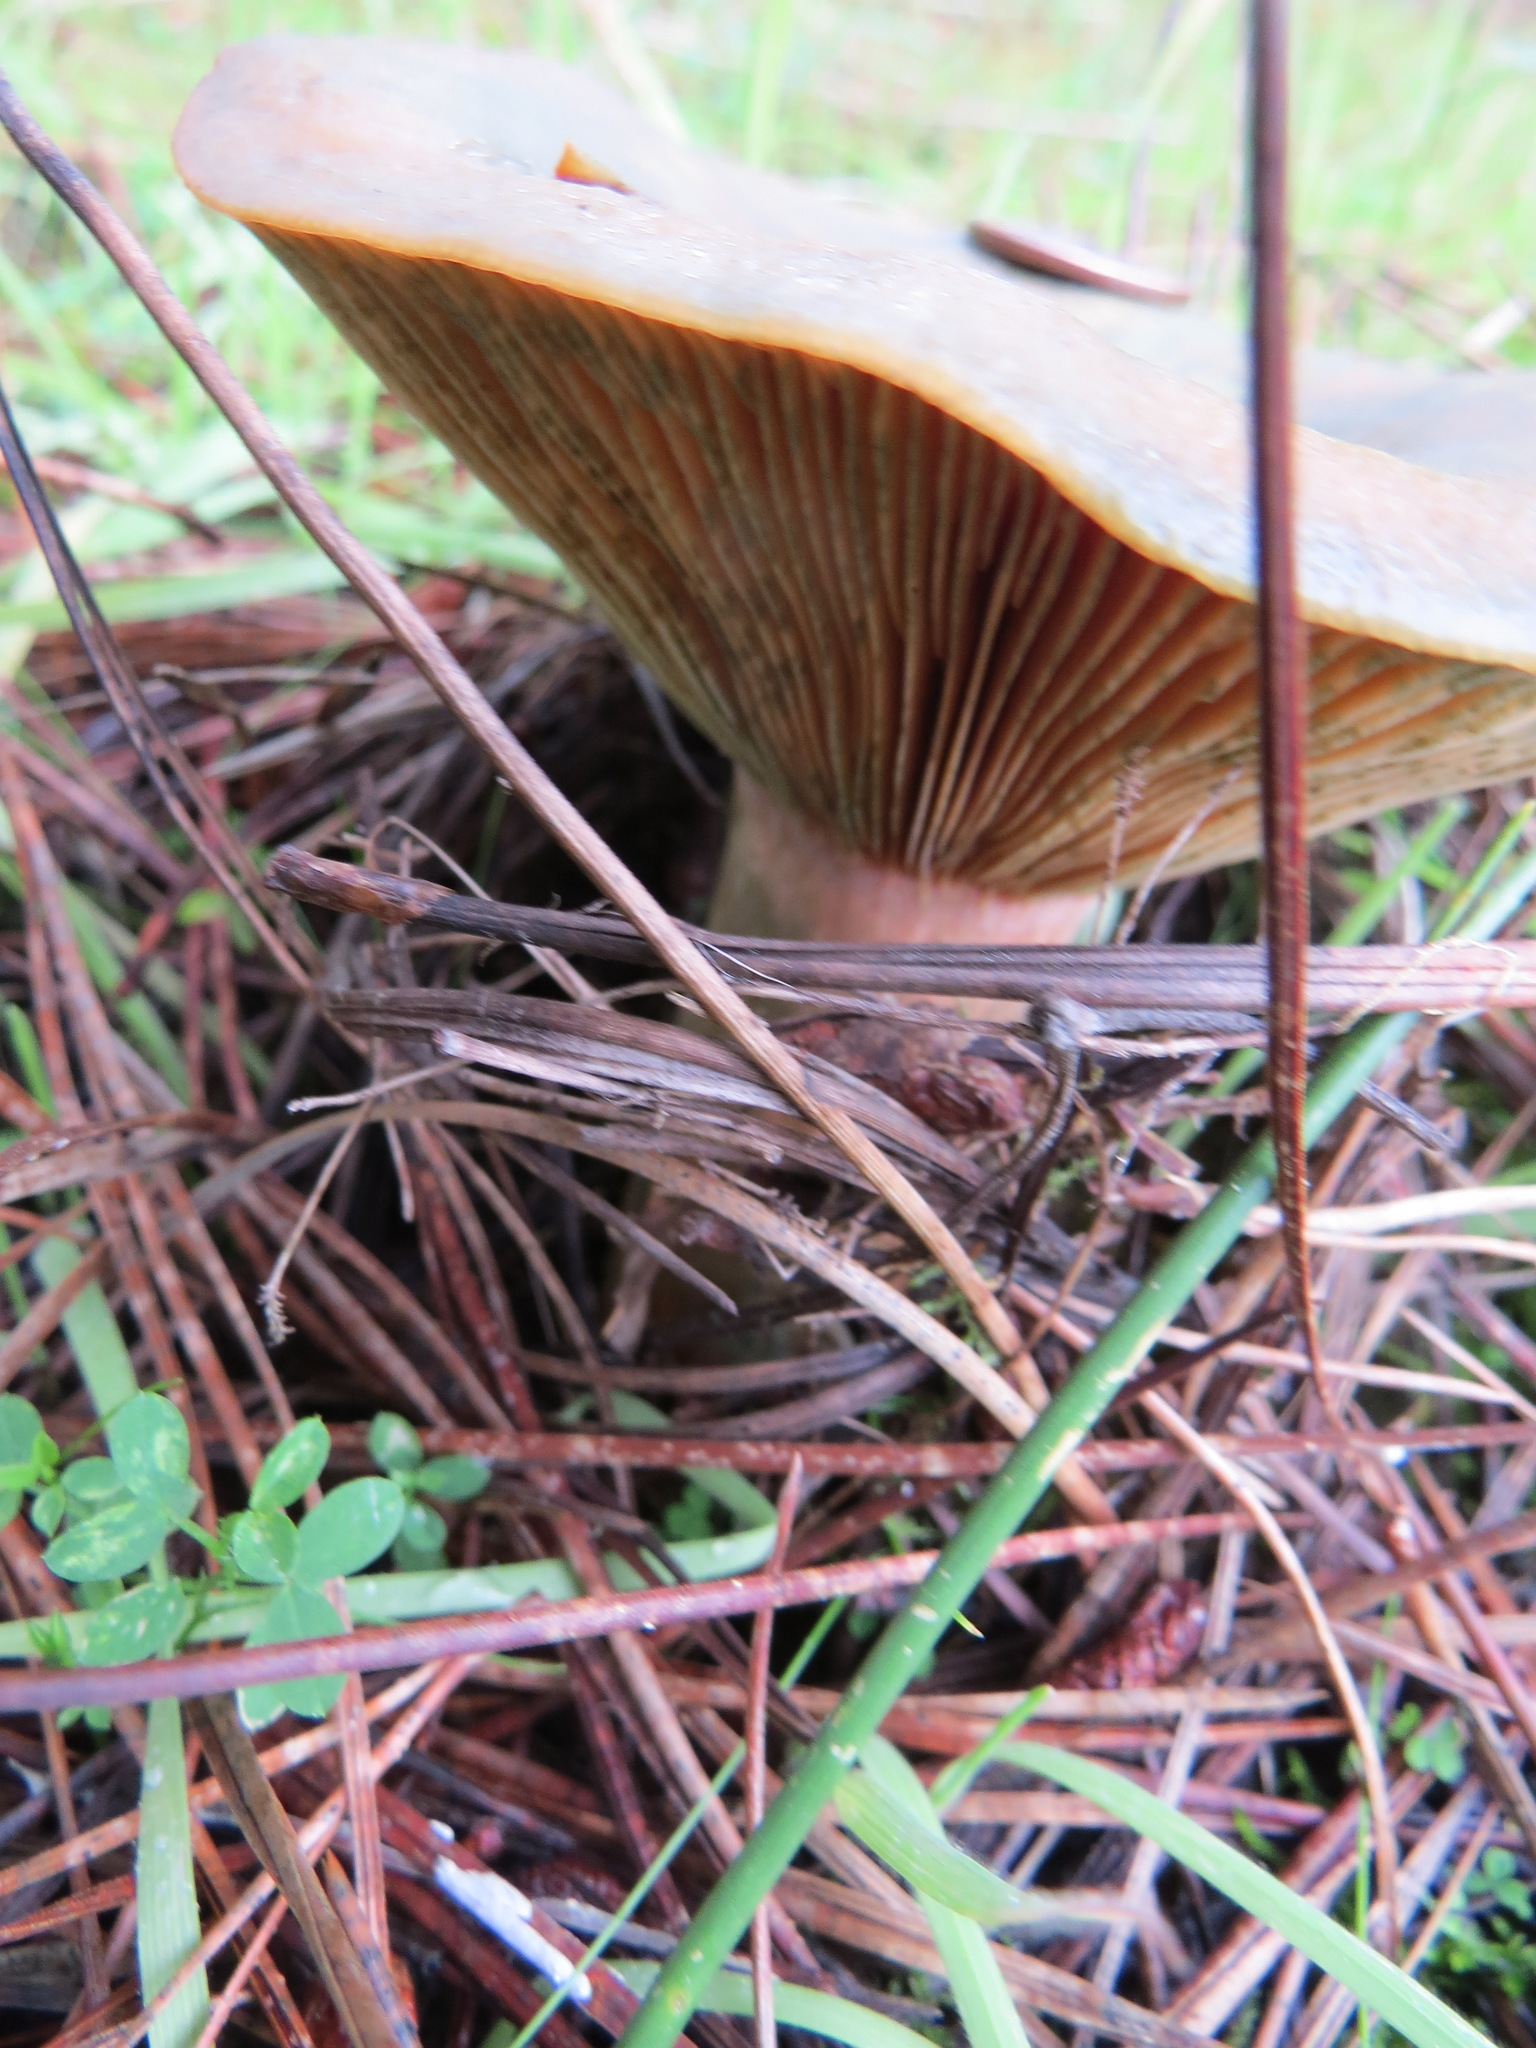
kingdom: Fungi
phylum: Basidiomycota
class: Agaricomycetes
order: Russulales
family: Russulaceae
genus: Lactarius
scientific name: Lactarius deliciosus
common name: Saffron milk-cap
